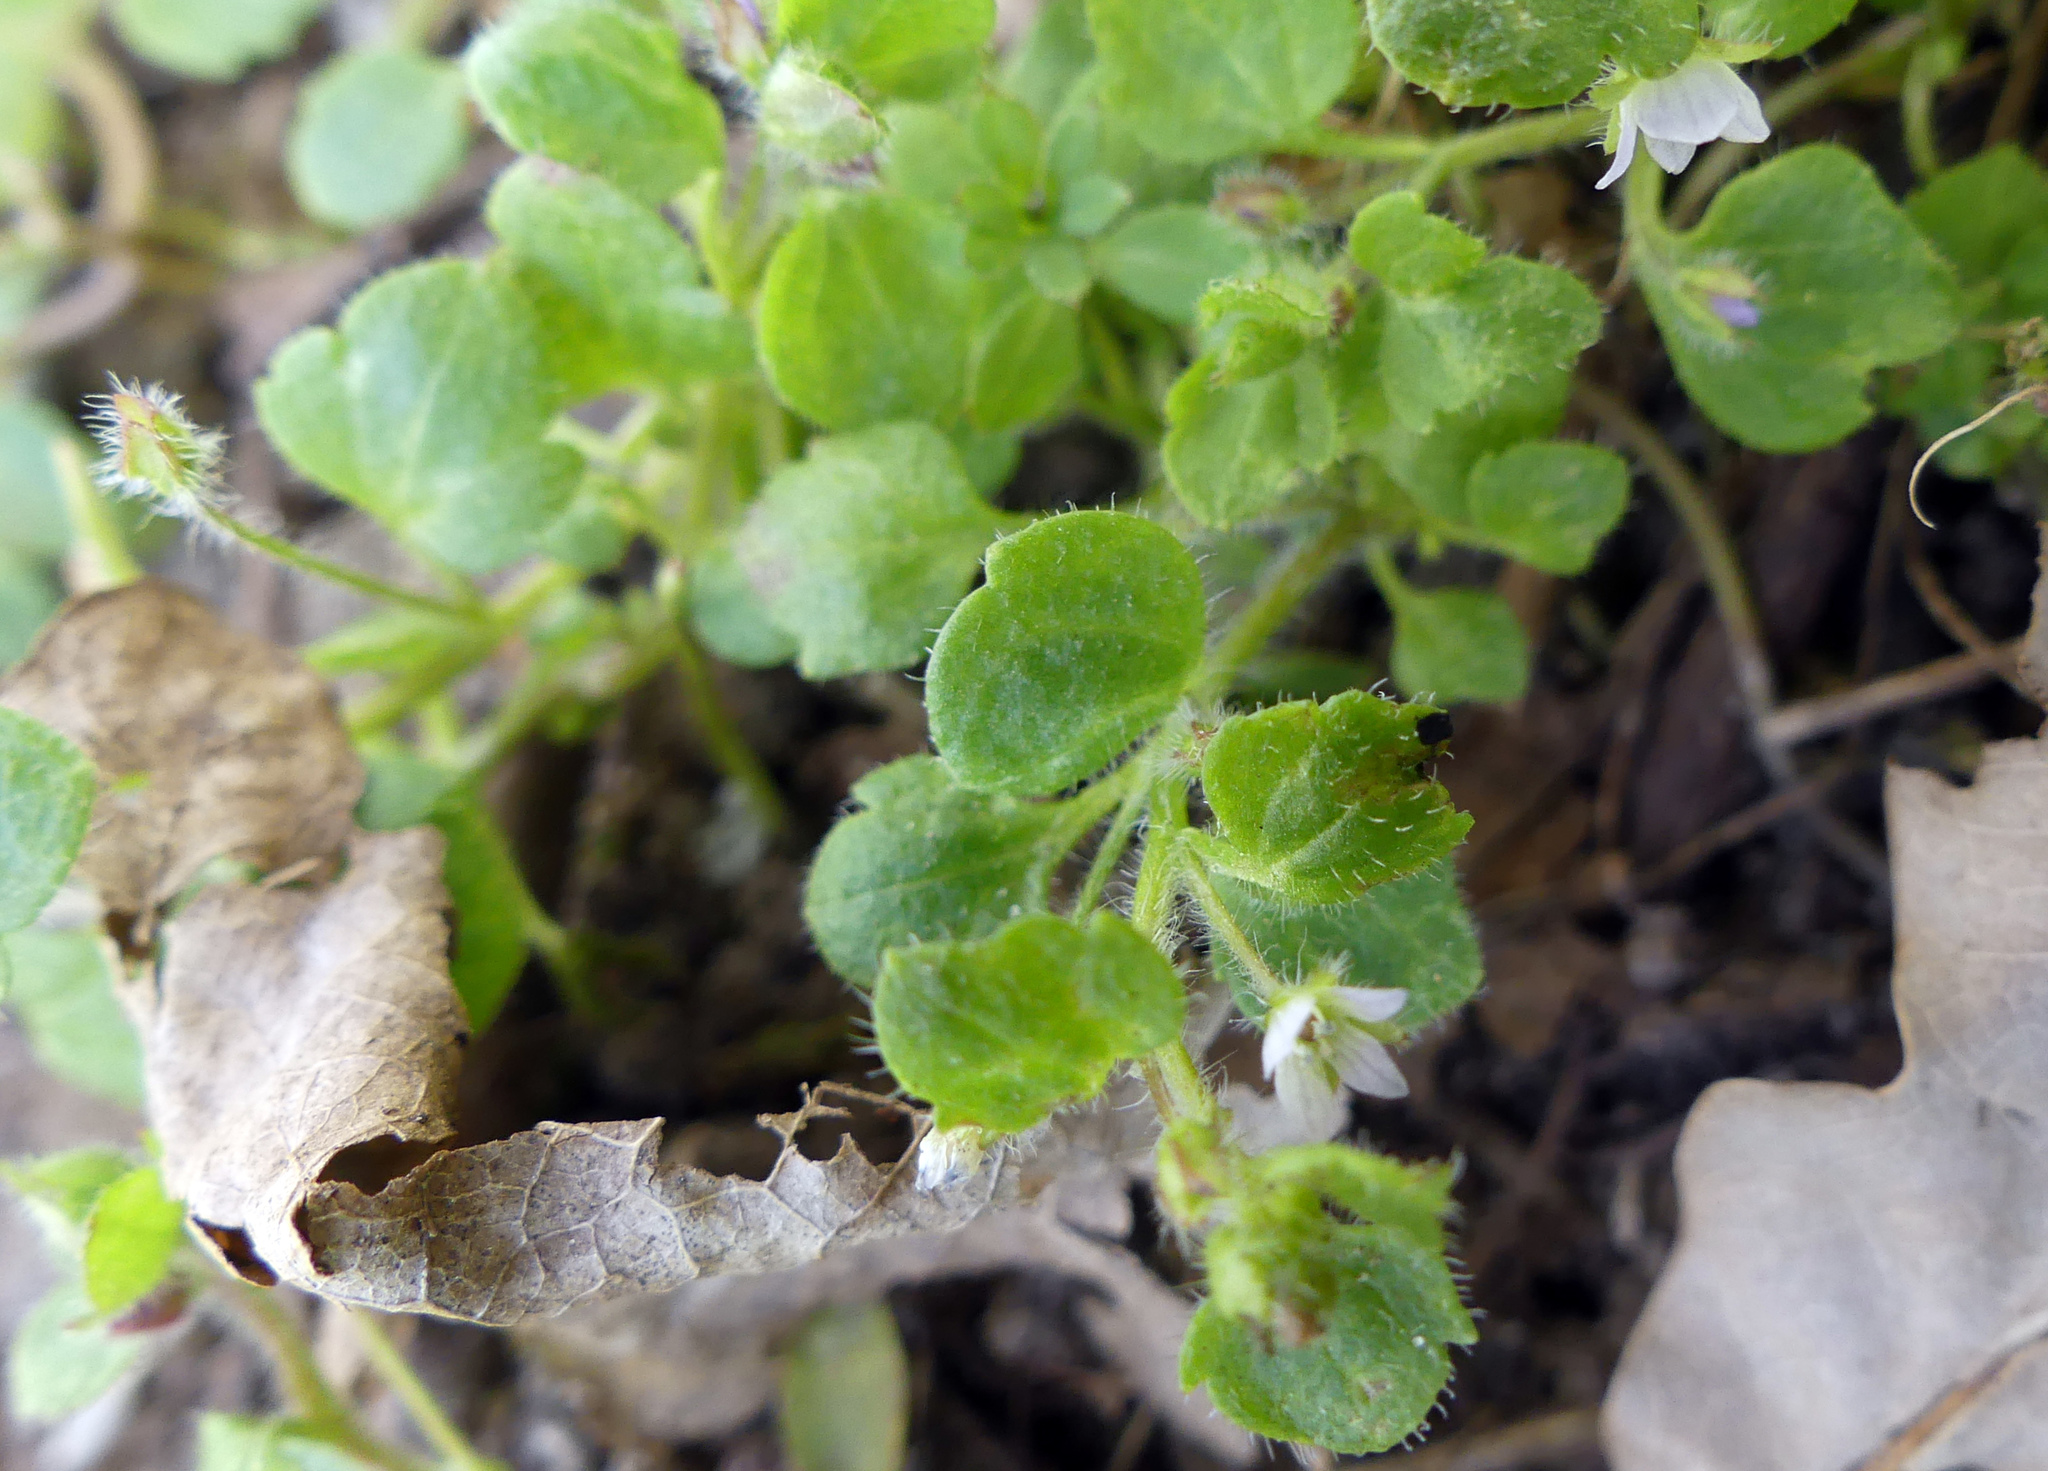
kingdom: Plantae
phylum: Tracheophyta
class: Magnoliopsida
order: Lamiales
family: Plantaginaceae
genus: Veronica
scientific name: Veronica sublobata
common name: False ivy-leaved speedwell
